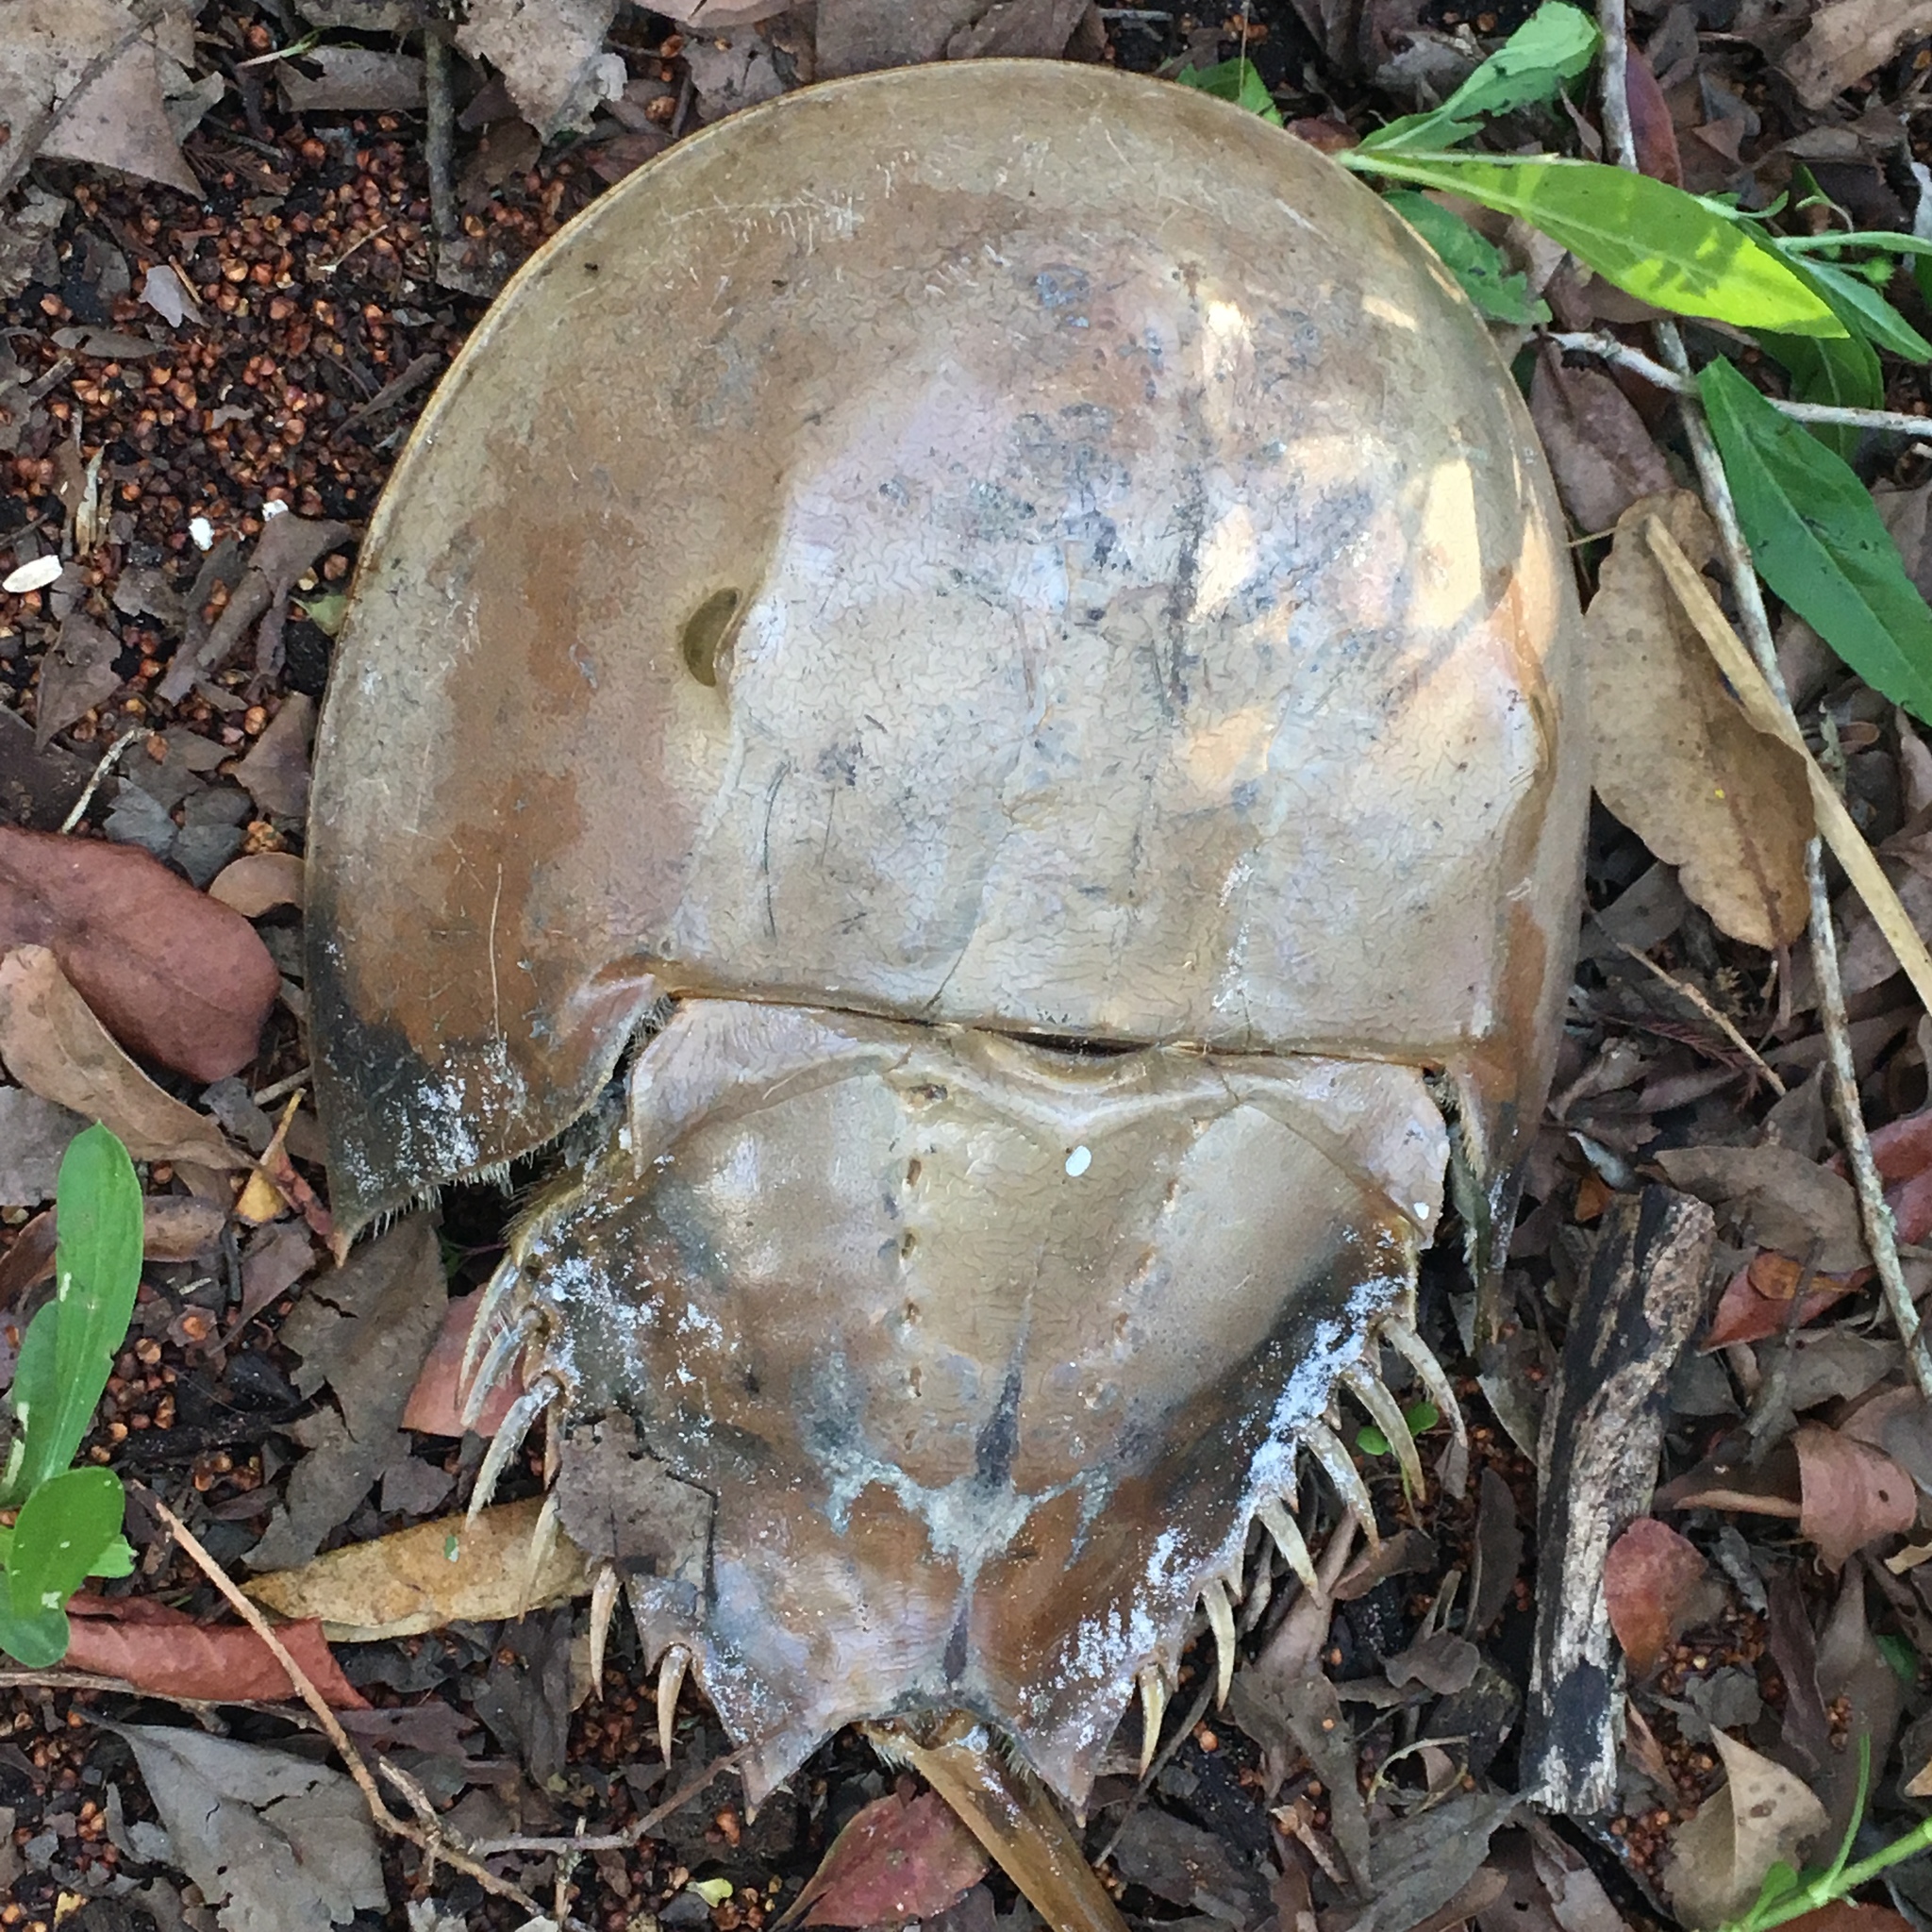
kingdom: Animalia
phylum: Arthropoda
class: Merostomata
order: Xiphosurida
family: Limulidae
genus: Limulus
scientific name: Limulus polyphemus
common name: Horseshoe crab
